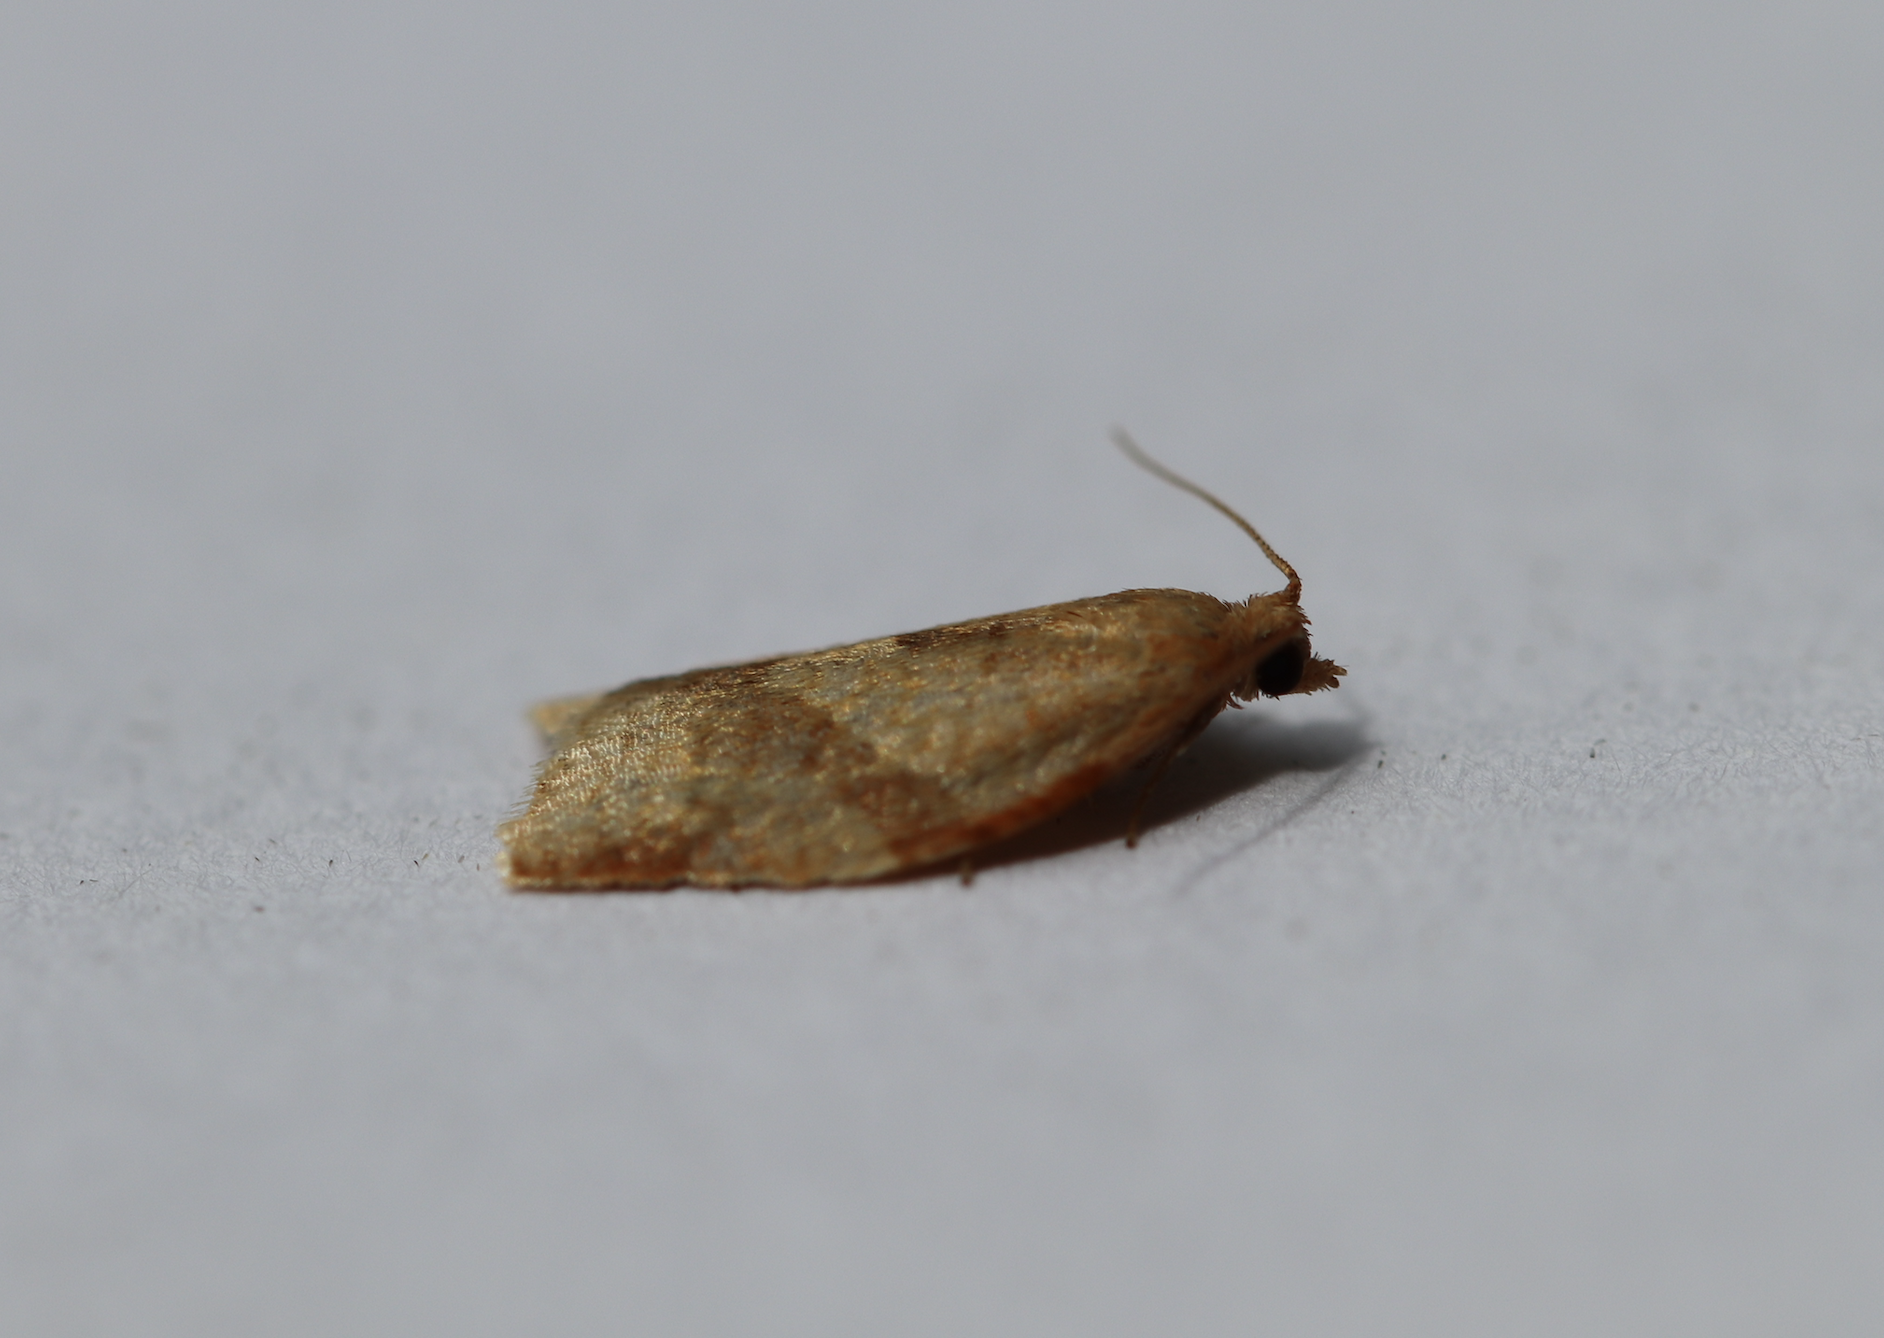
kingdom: Animalia
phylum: Arthropoda
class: Insecta
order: Lepidoptera
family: Tortricidae
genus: Clepsis
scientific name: Clepsis consimilana
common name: Privet tortrix
